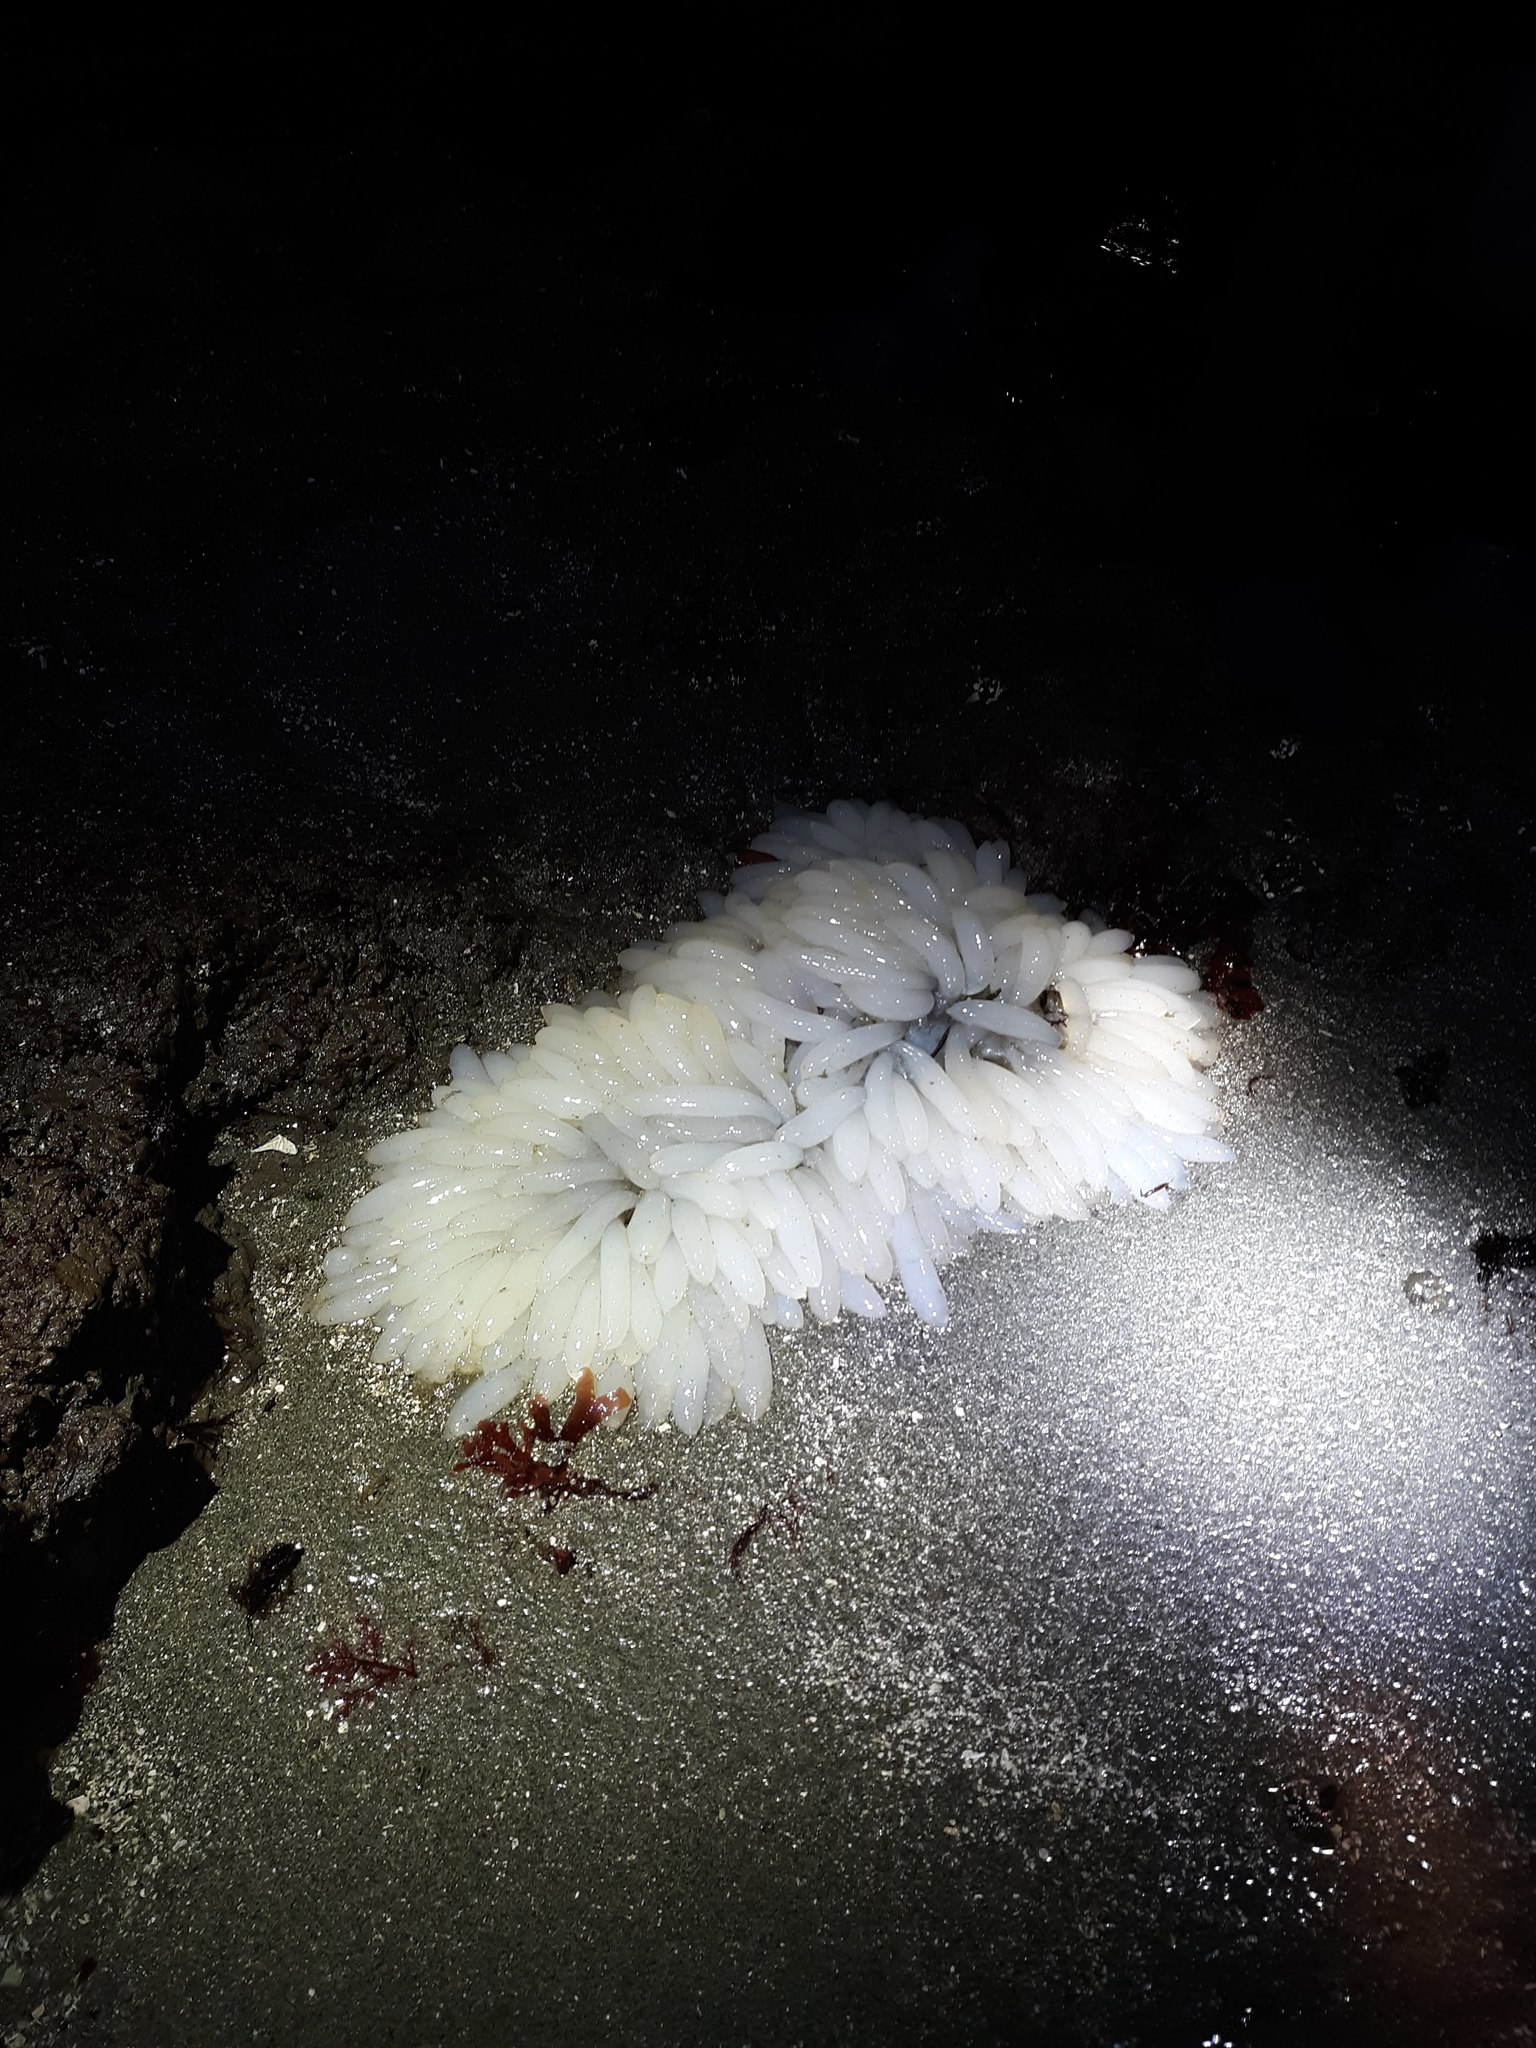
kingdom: Animalia
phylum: Mollusca
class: Cephalopoda
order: Myopsida
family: Loliginidae
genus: Doryteuthis
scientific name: Doryteuthis opalescens
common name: Opalescent inshore squid
